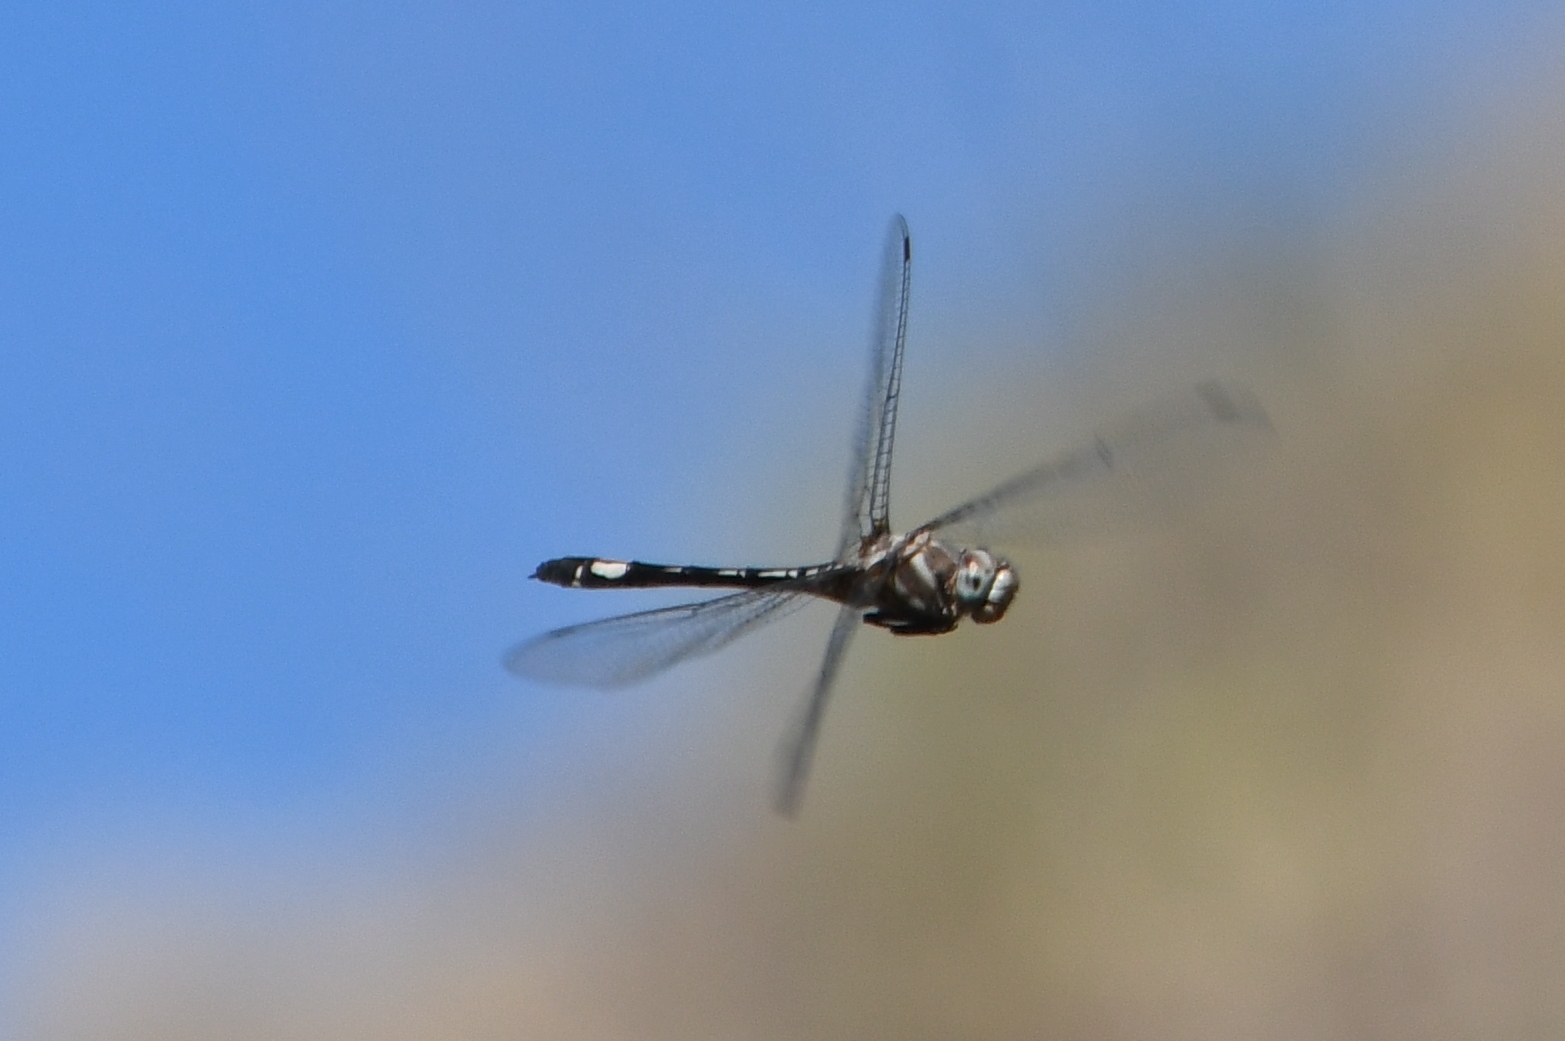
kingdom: Animalia
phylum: Arthropoda
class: Insecta
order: Odonata
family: Libellulidae
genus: Brechmorhoga
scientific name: Brechmorhoga mendax
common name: Pale-faced clubskimmer
